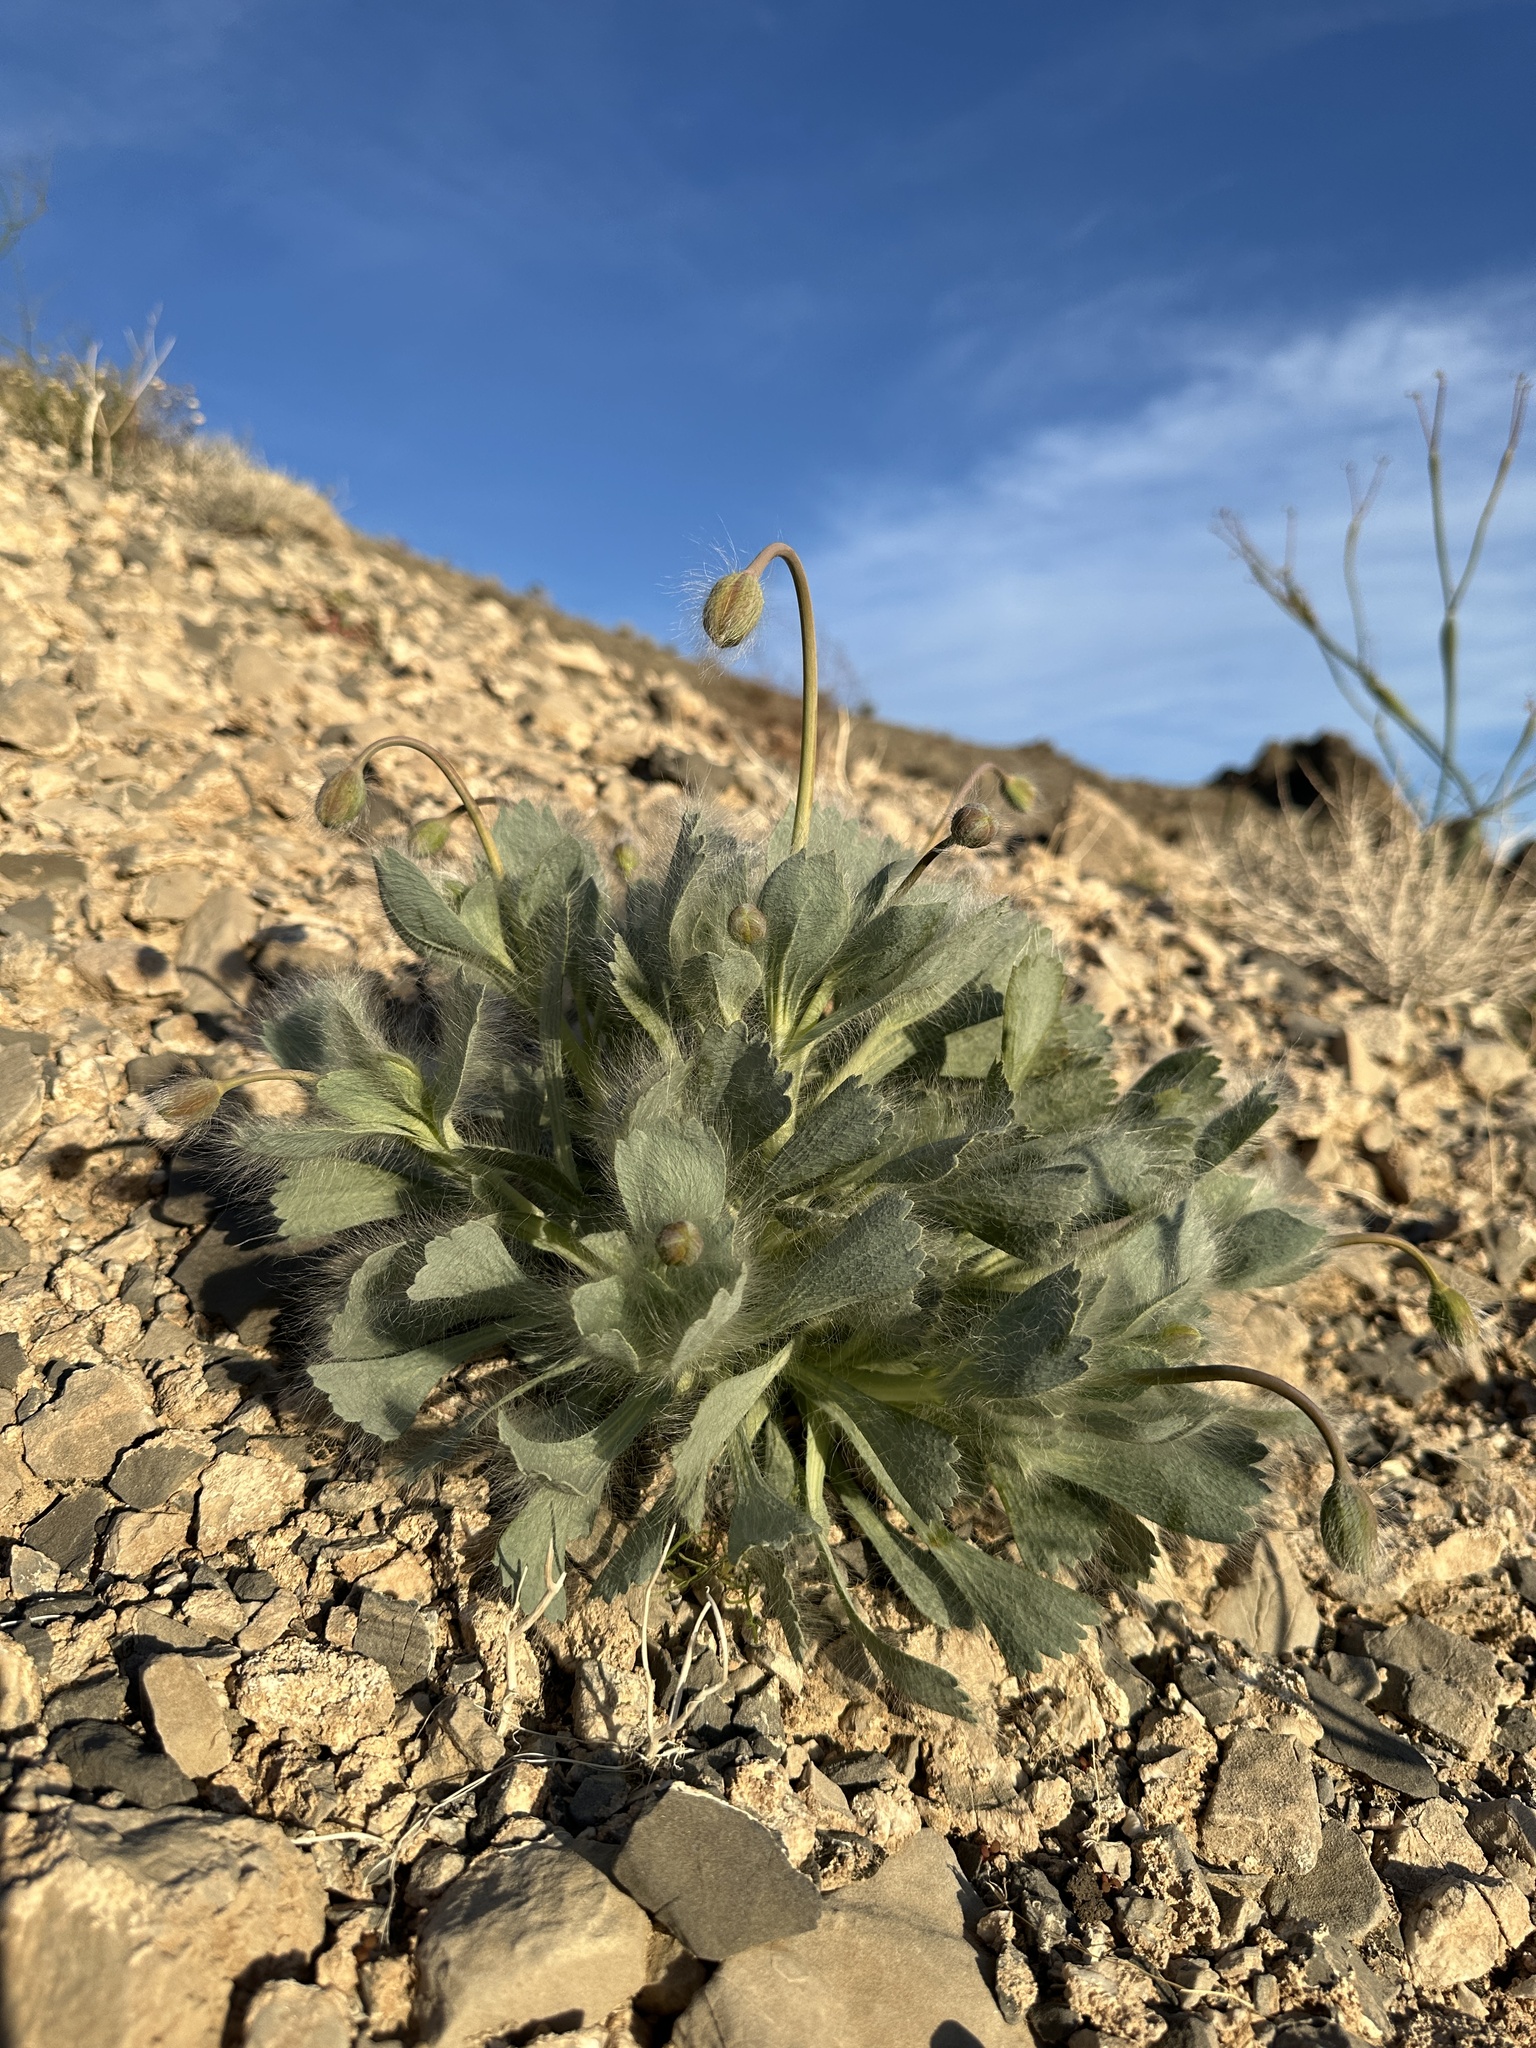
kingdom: Plantae
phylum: Tracheophyta
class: Magnoliopsida
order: Ranunculales
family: Papaveraceae
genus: Arctomecon
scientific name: Arctomecon merriamii
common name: White bear-poppy
